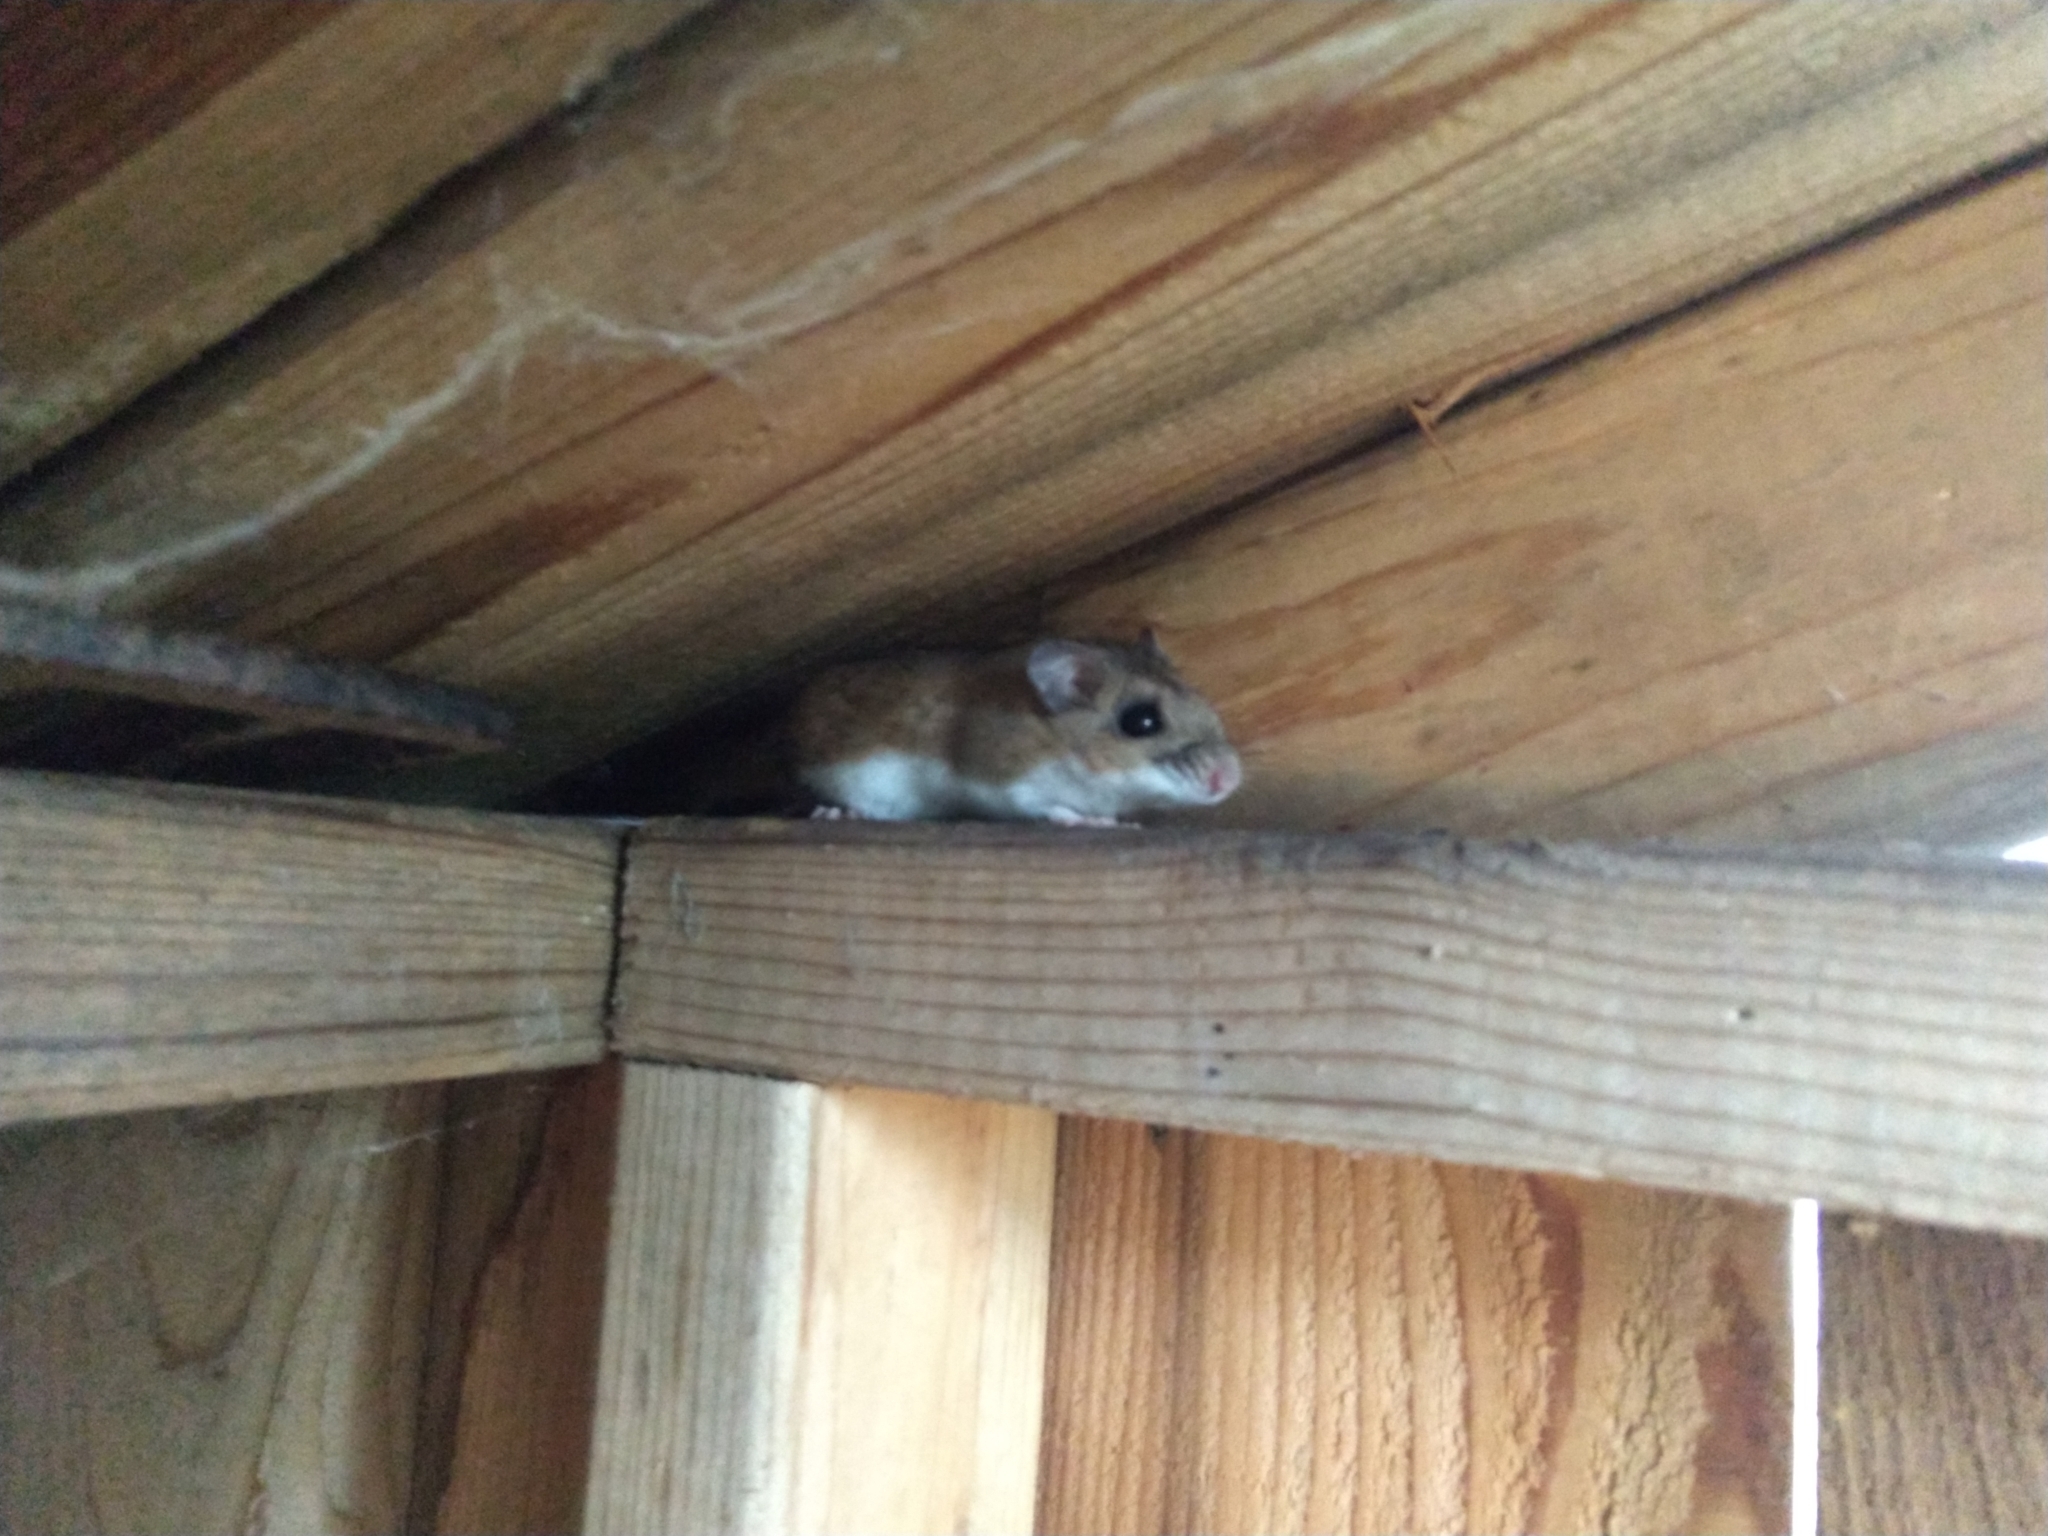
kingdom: Animalia
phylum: Chordata
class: Mammalia
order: Rodentia
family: Cricetidae
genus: Peromyscus
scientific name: Peromyscus maniculatus
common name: Deer mouse
